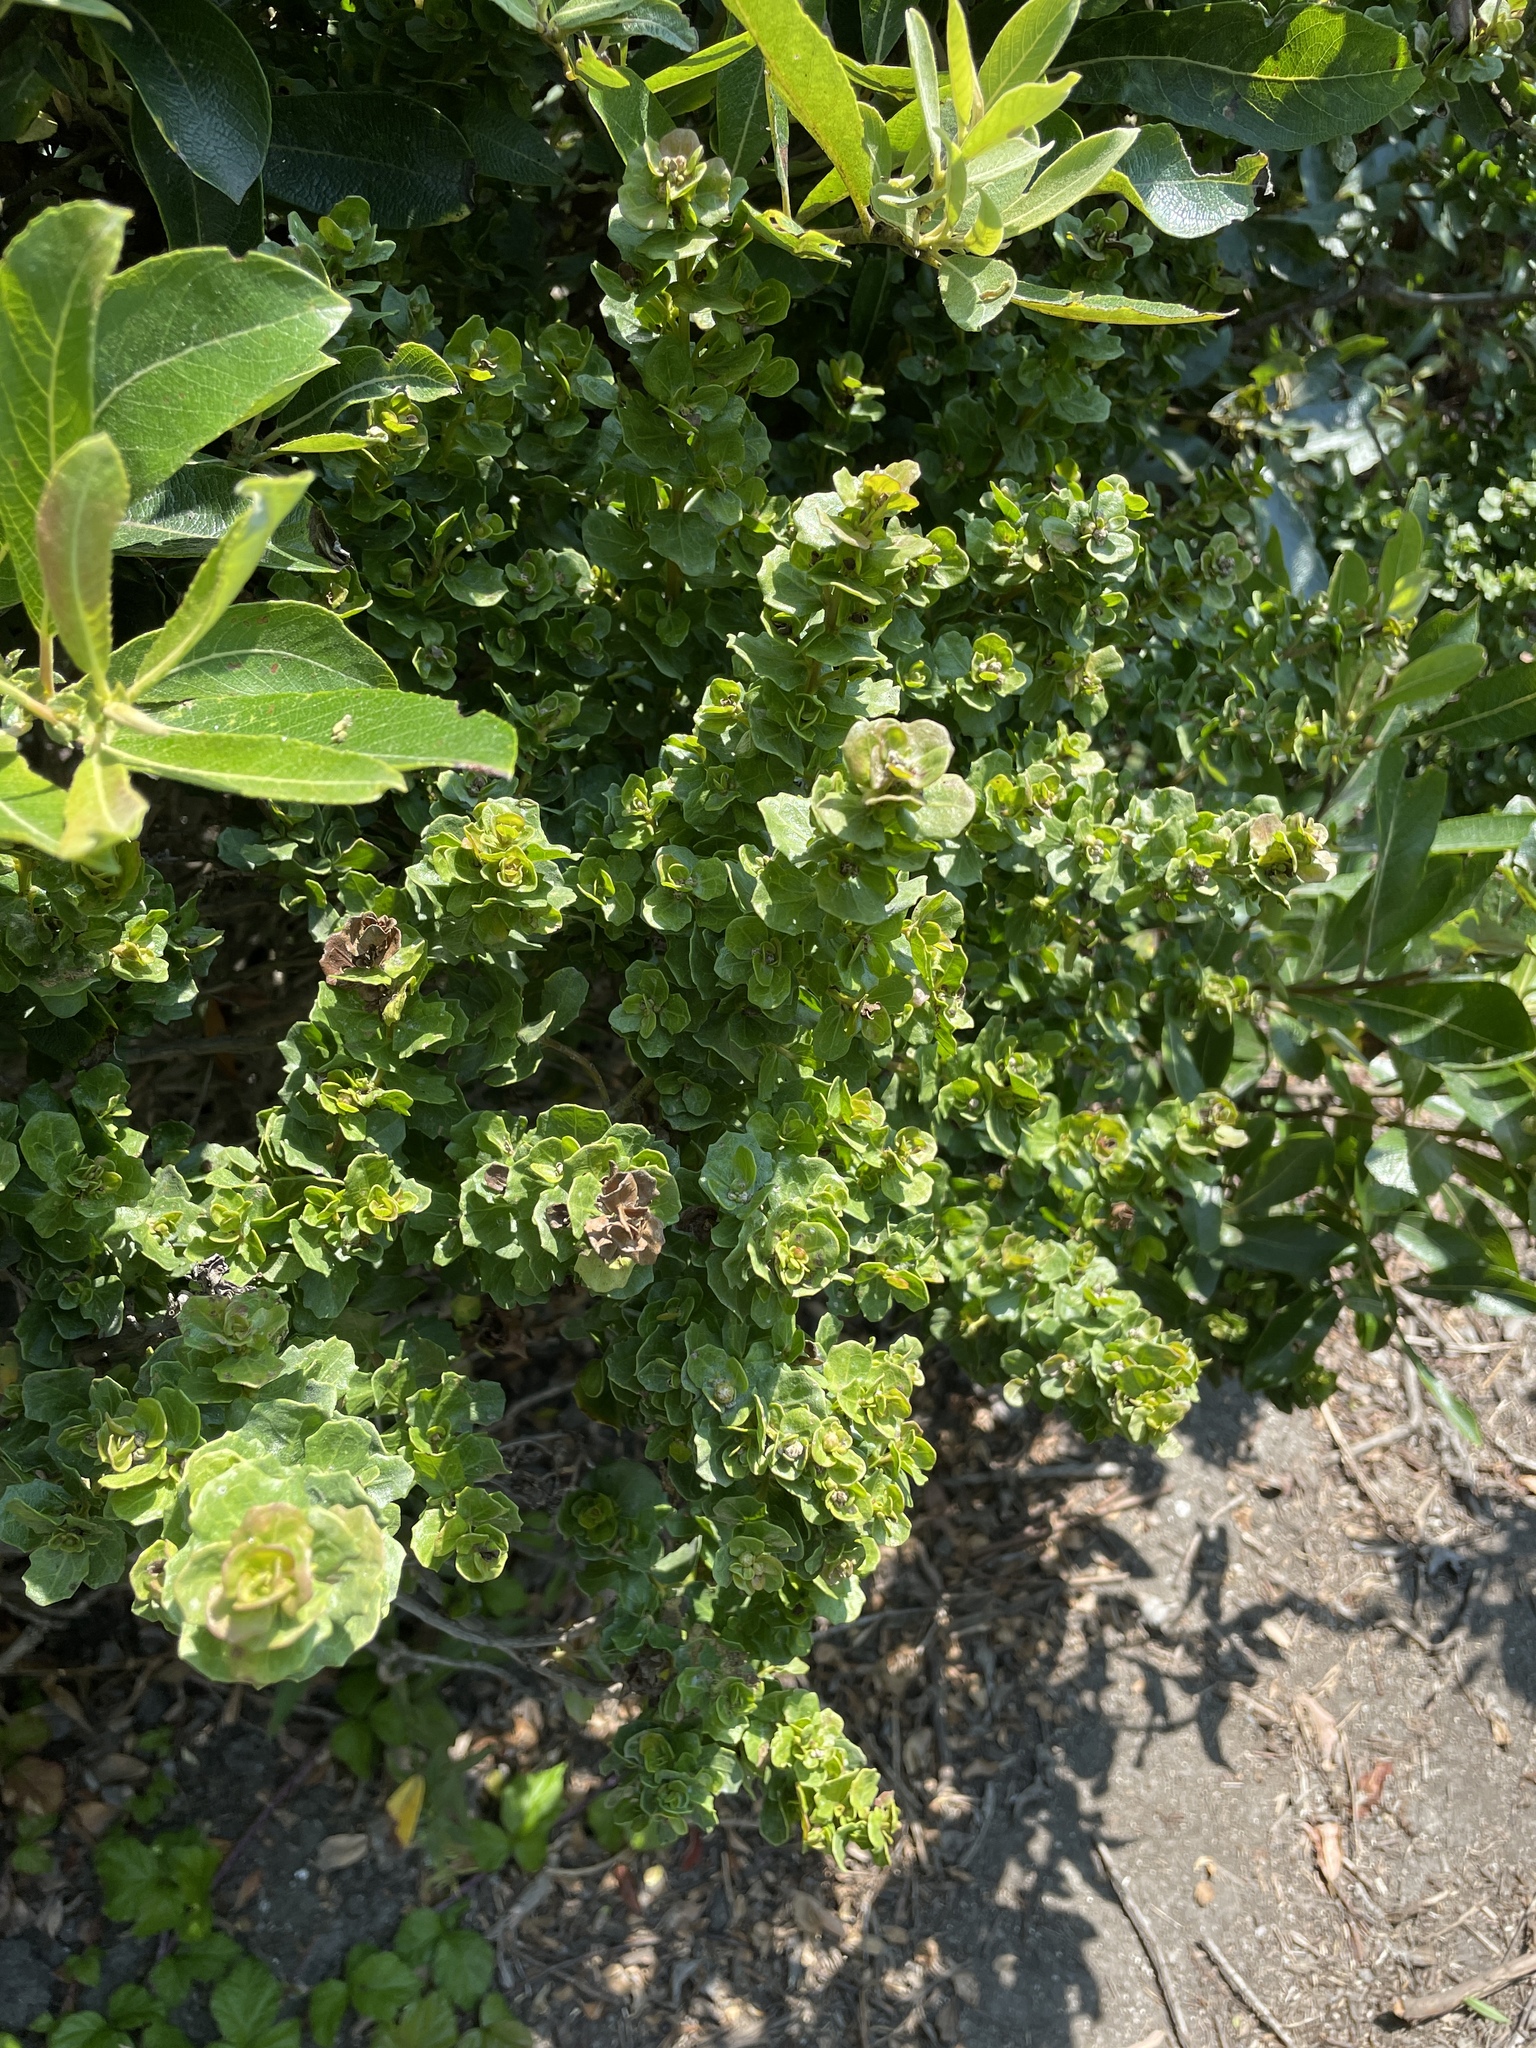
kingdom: Plantae
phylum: Tracheophyta
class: Magnoliopsida
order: Asterales
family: Asteraceae
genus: Baccharis
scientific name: Baccharis pilularis
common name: Coyotebrush
